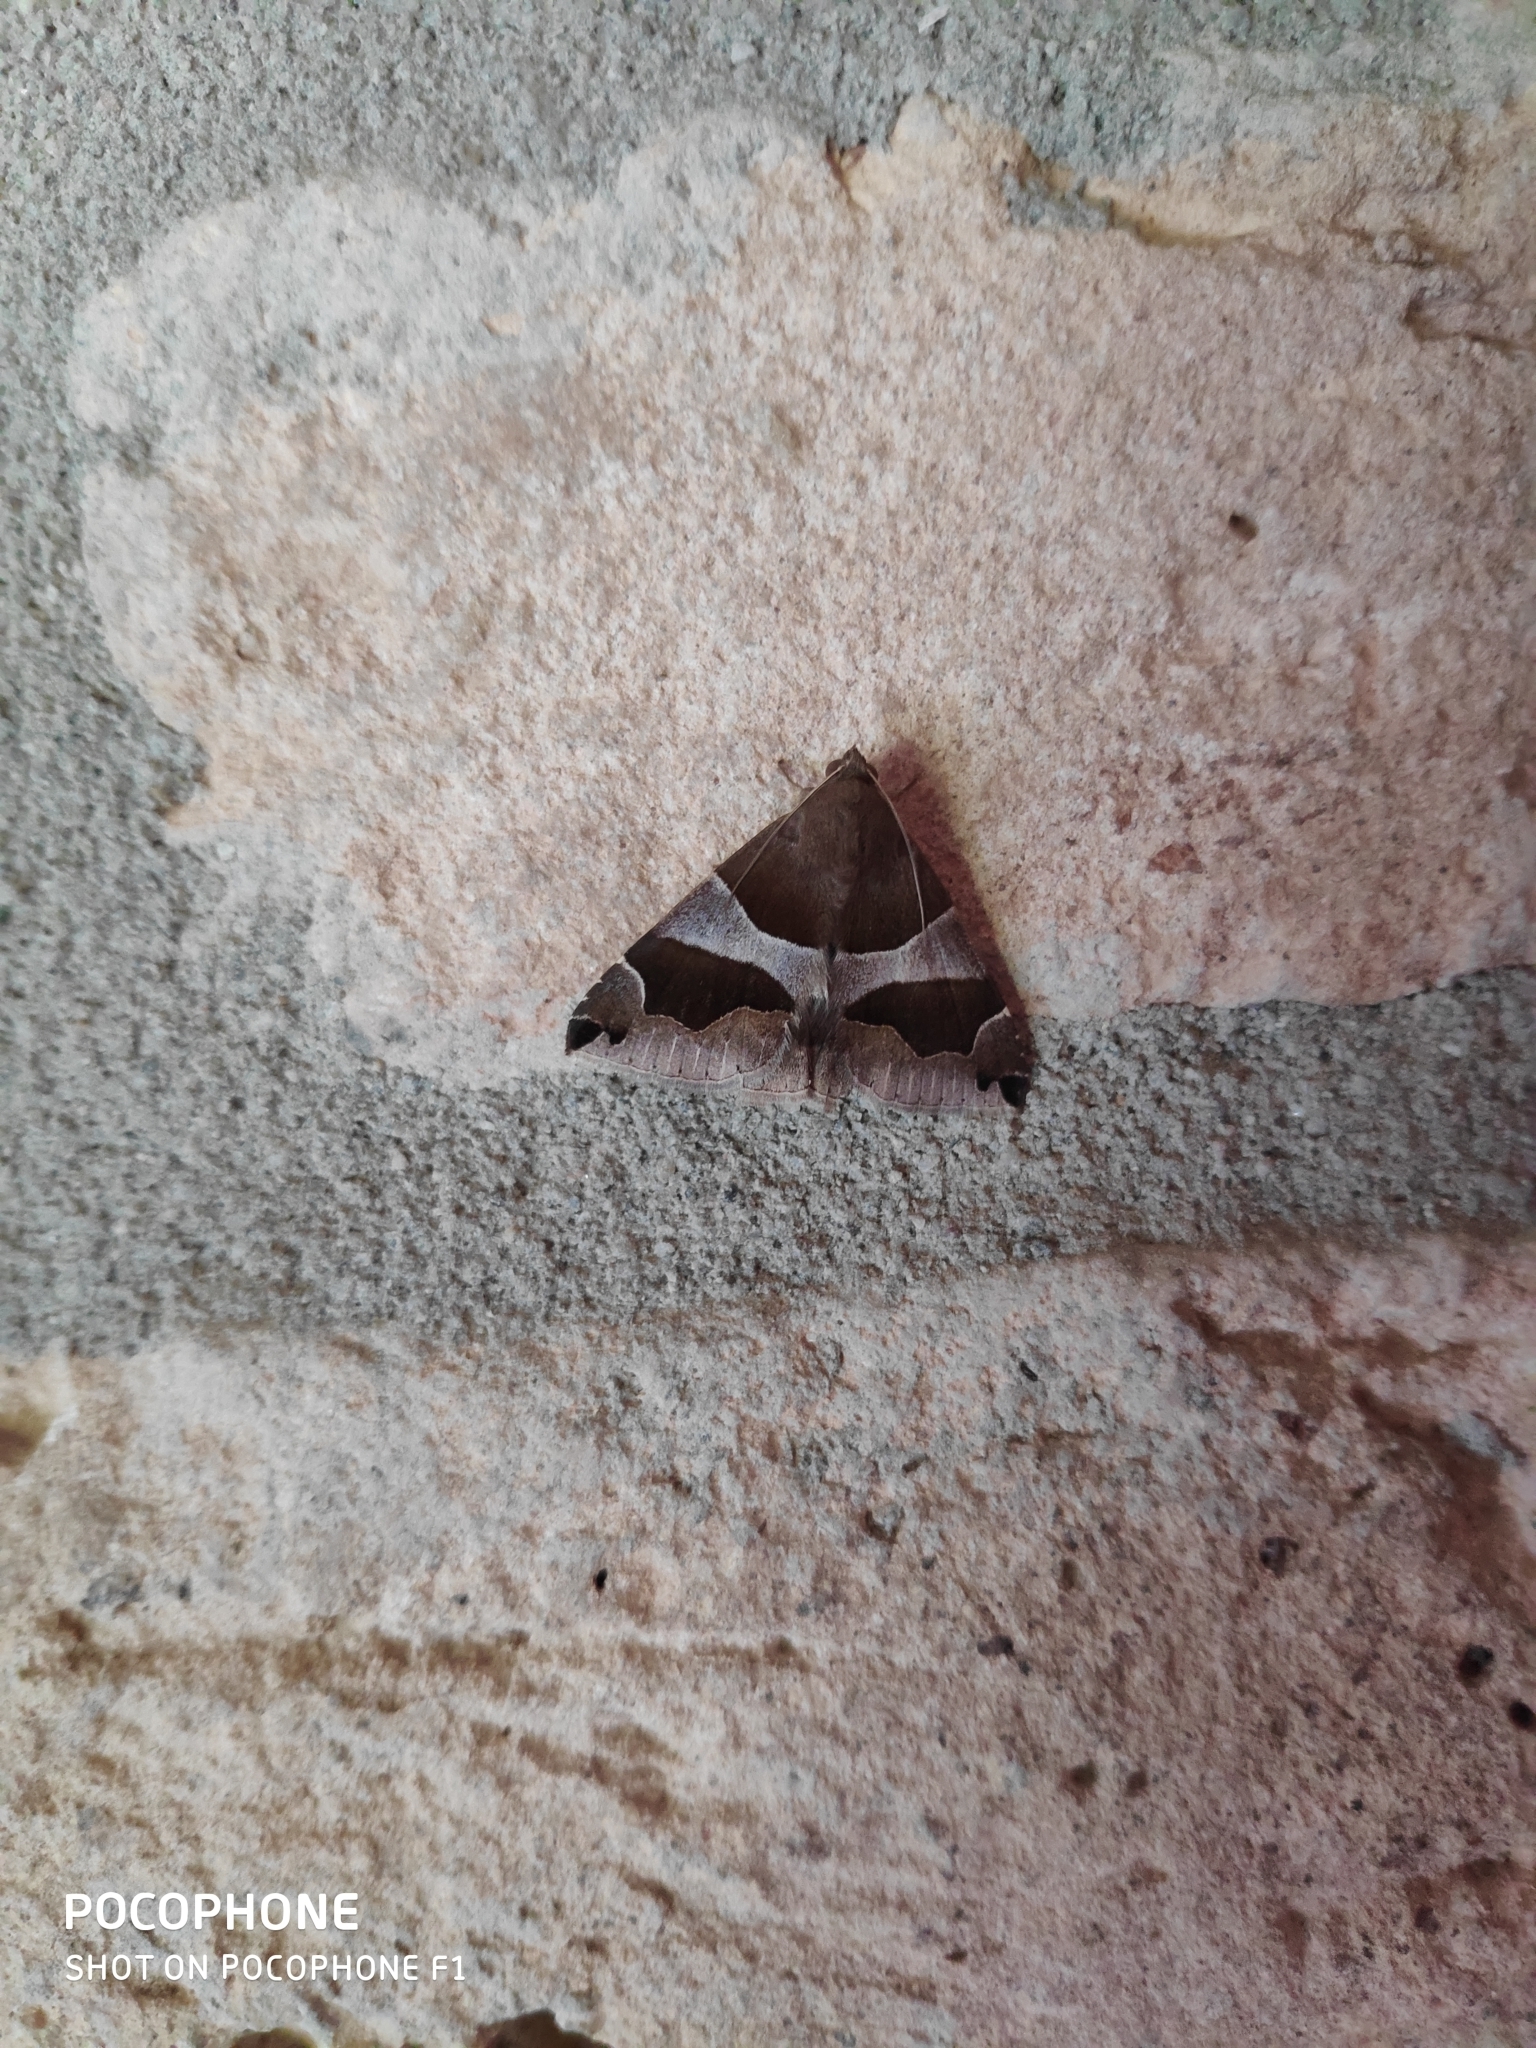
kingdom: Animalia
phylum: Arthropoda
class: Insecta
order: Lepidoptera
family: Erebidae
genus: Dysgonia
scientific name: Dysgonia algira
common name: Passenger
